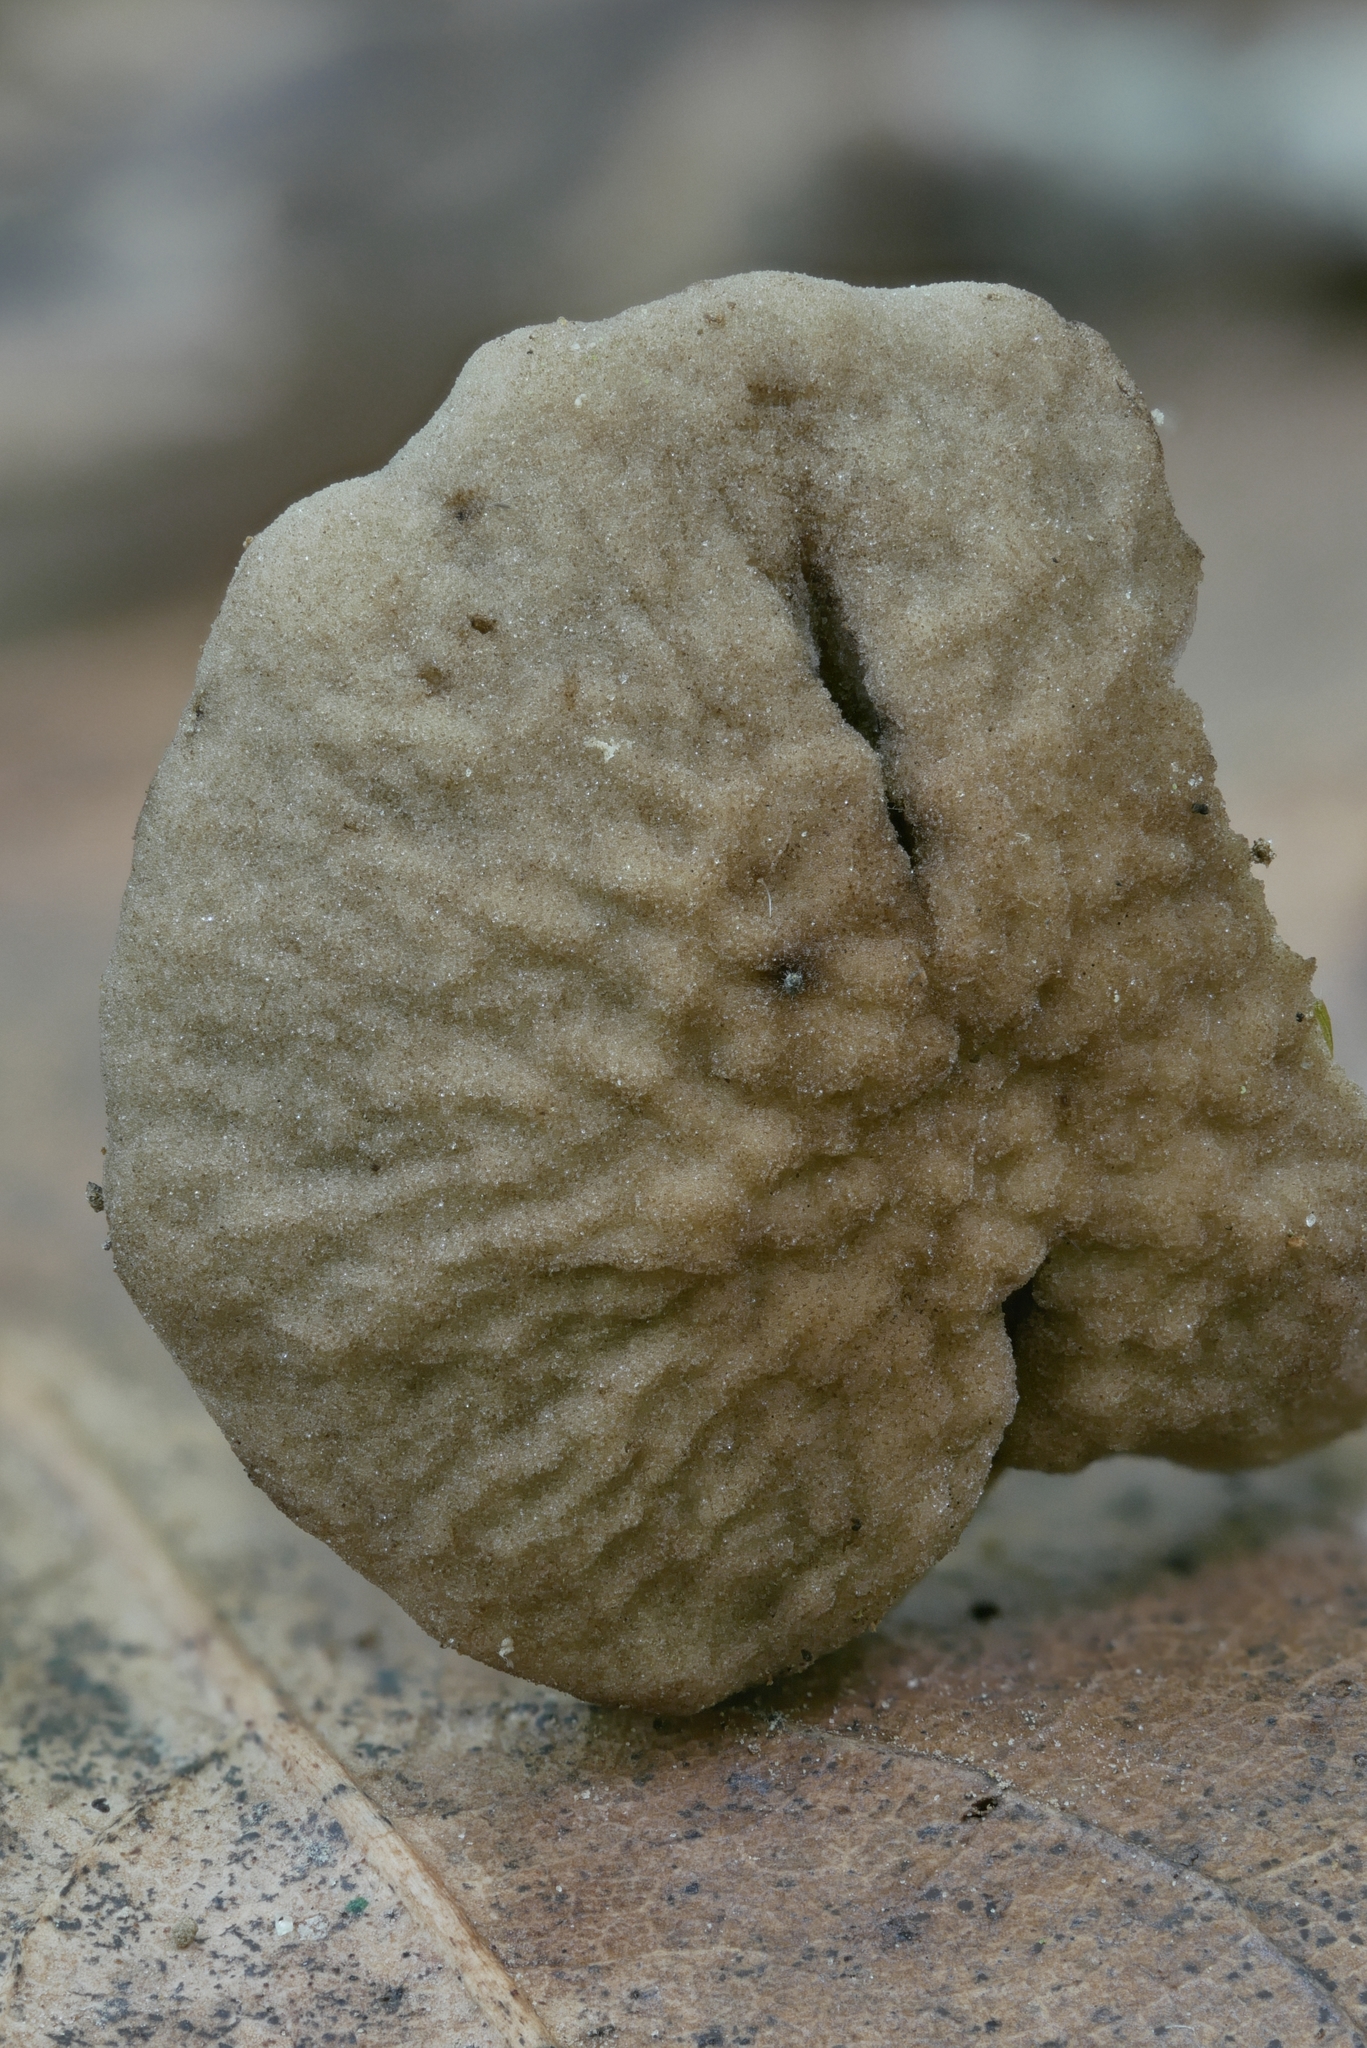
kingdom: Fungi
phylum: Basidiomycota
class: Agaricomycetes
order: Agaricales
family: Clavariaceae
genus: Hodophilus
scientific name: Hodophilus rugulosus
